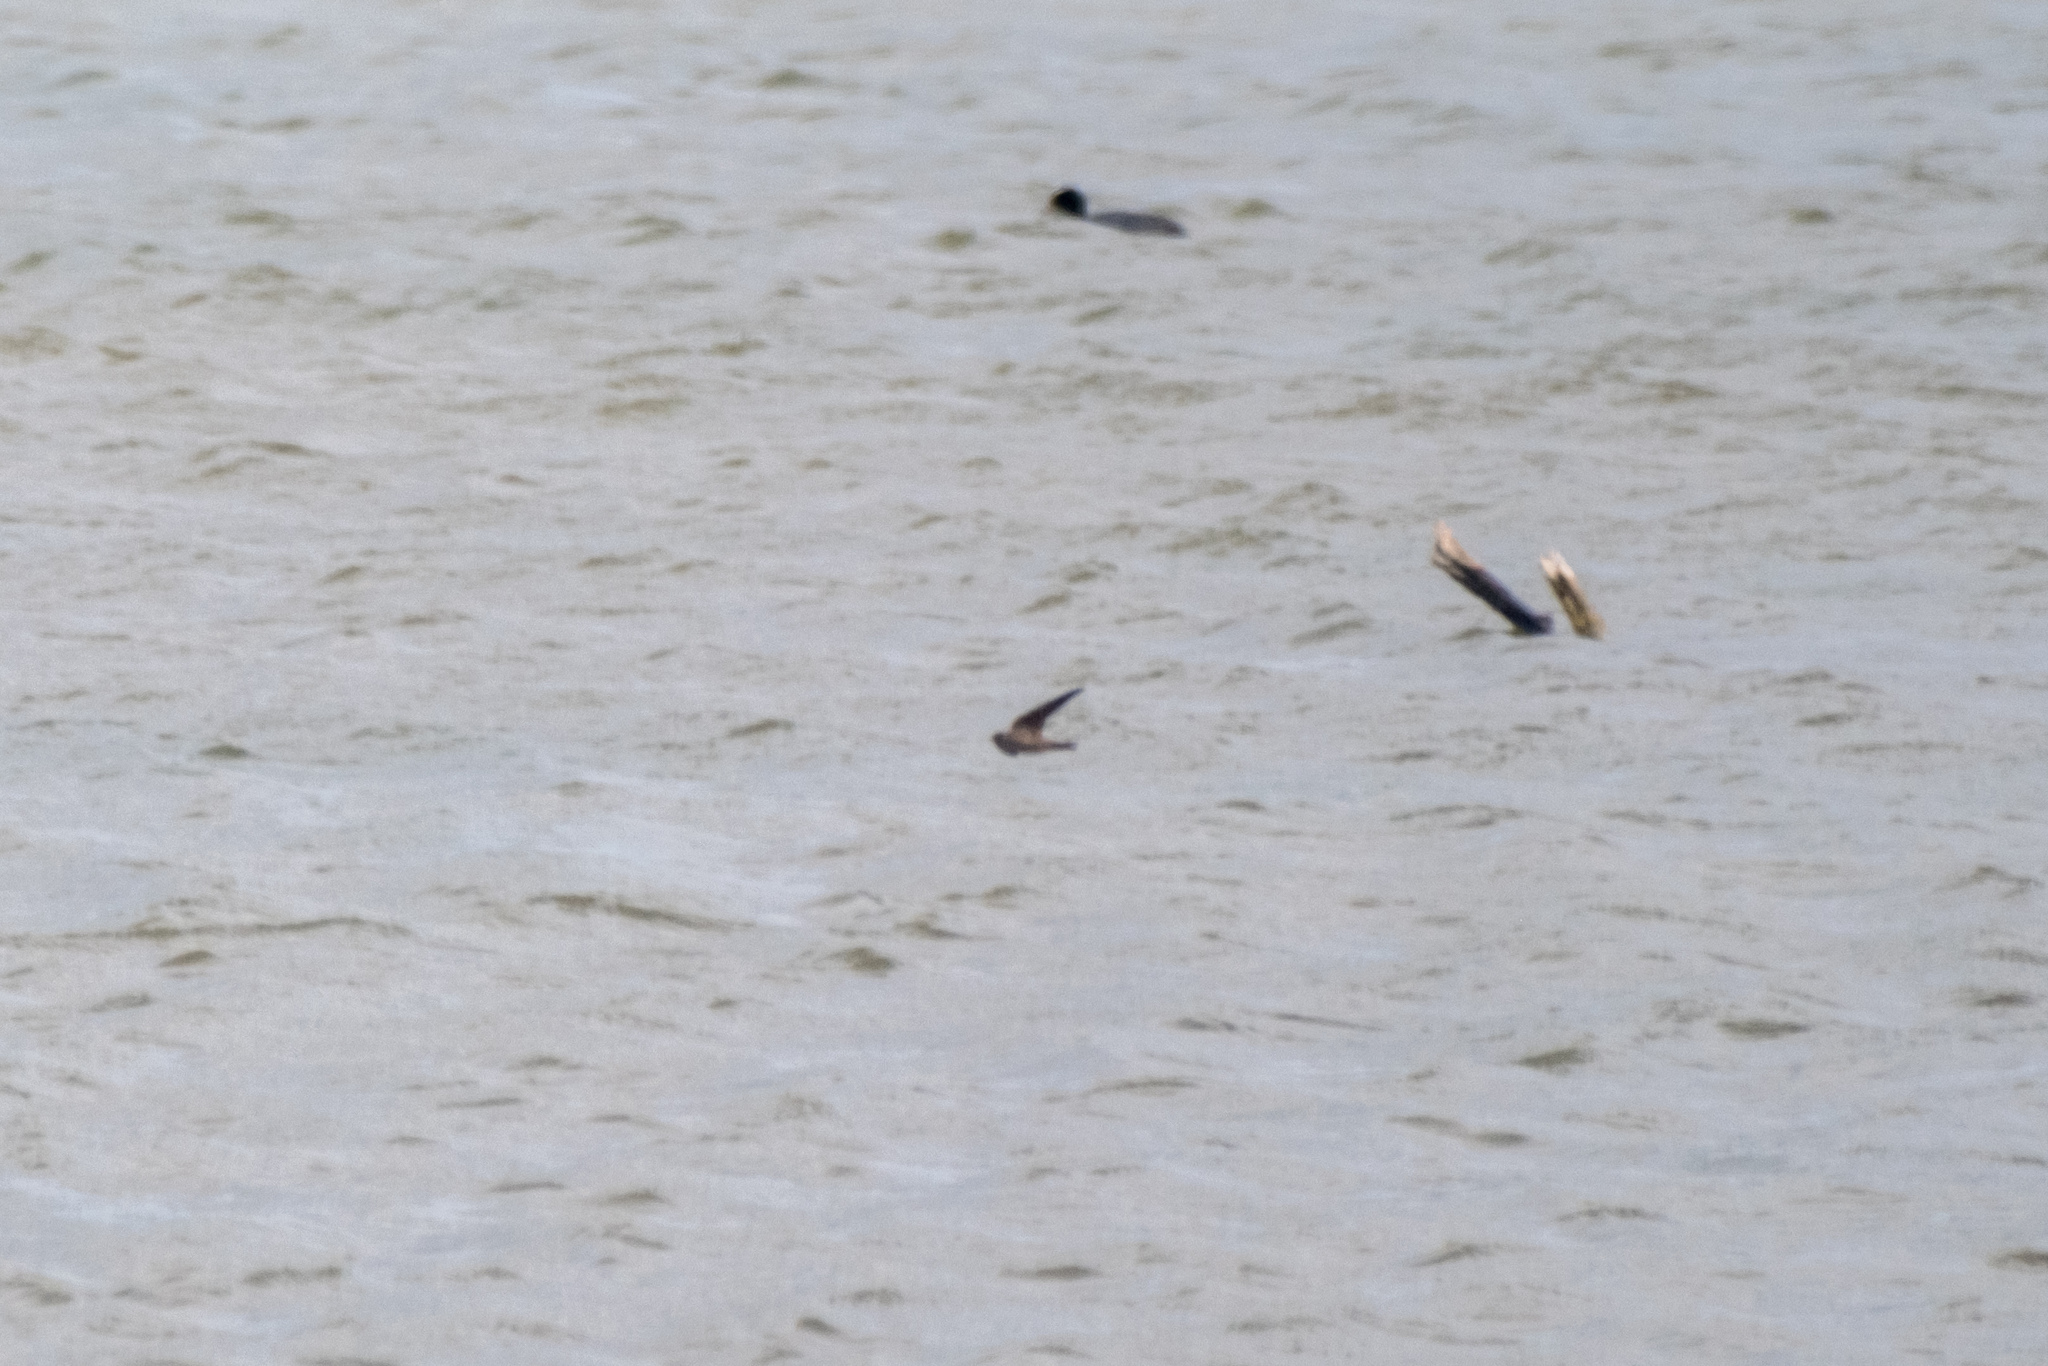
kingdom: Animalia
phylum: Chordata
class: Aves
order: Passeriformes
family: Hirundinidae
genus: Riparia
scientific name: Riparia riparia
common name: Sand martin
